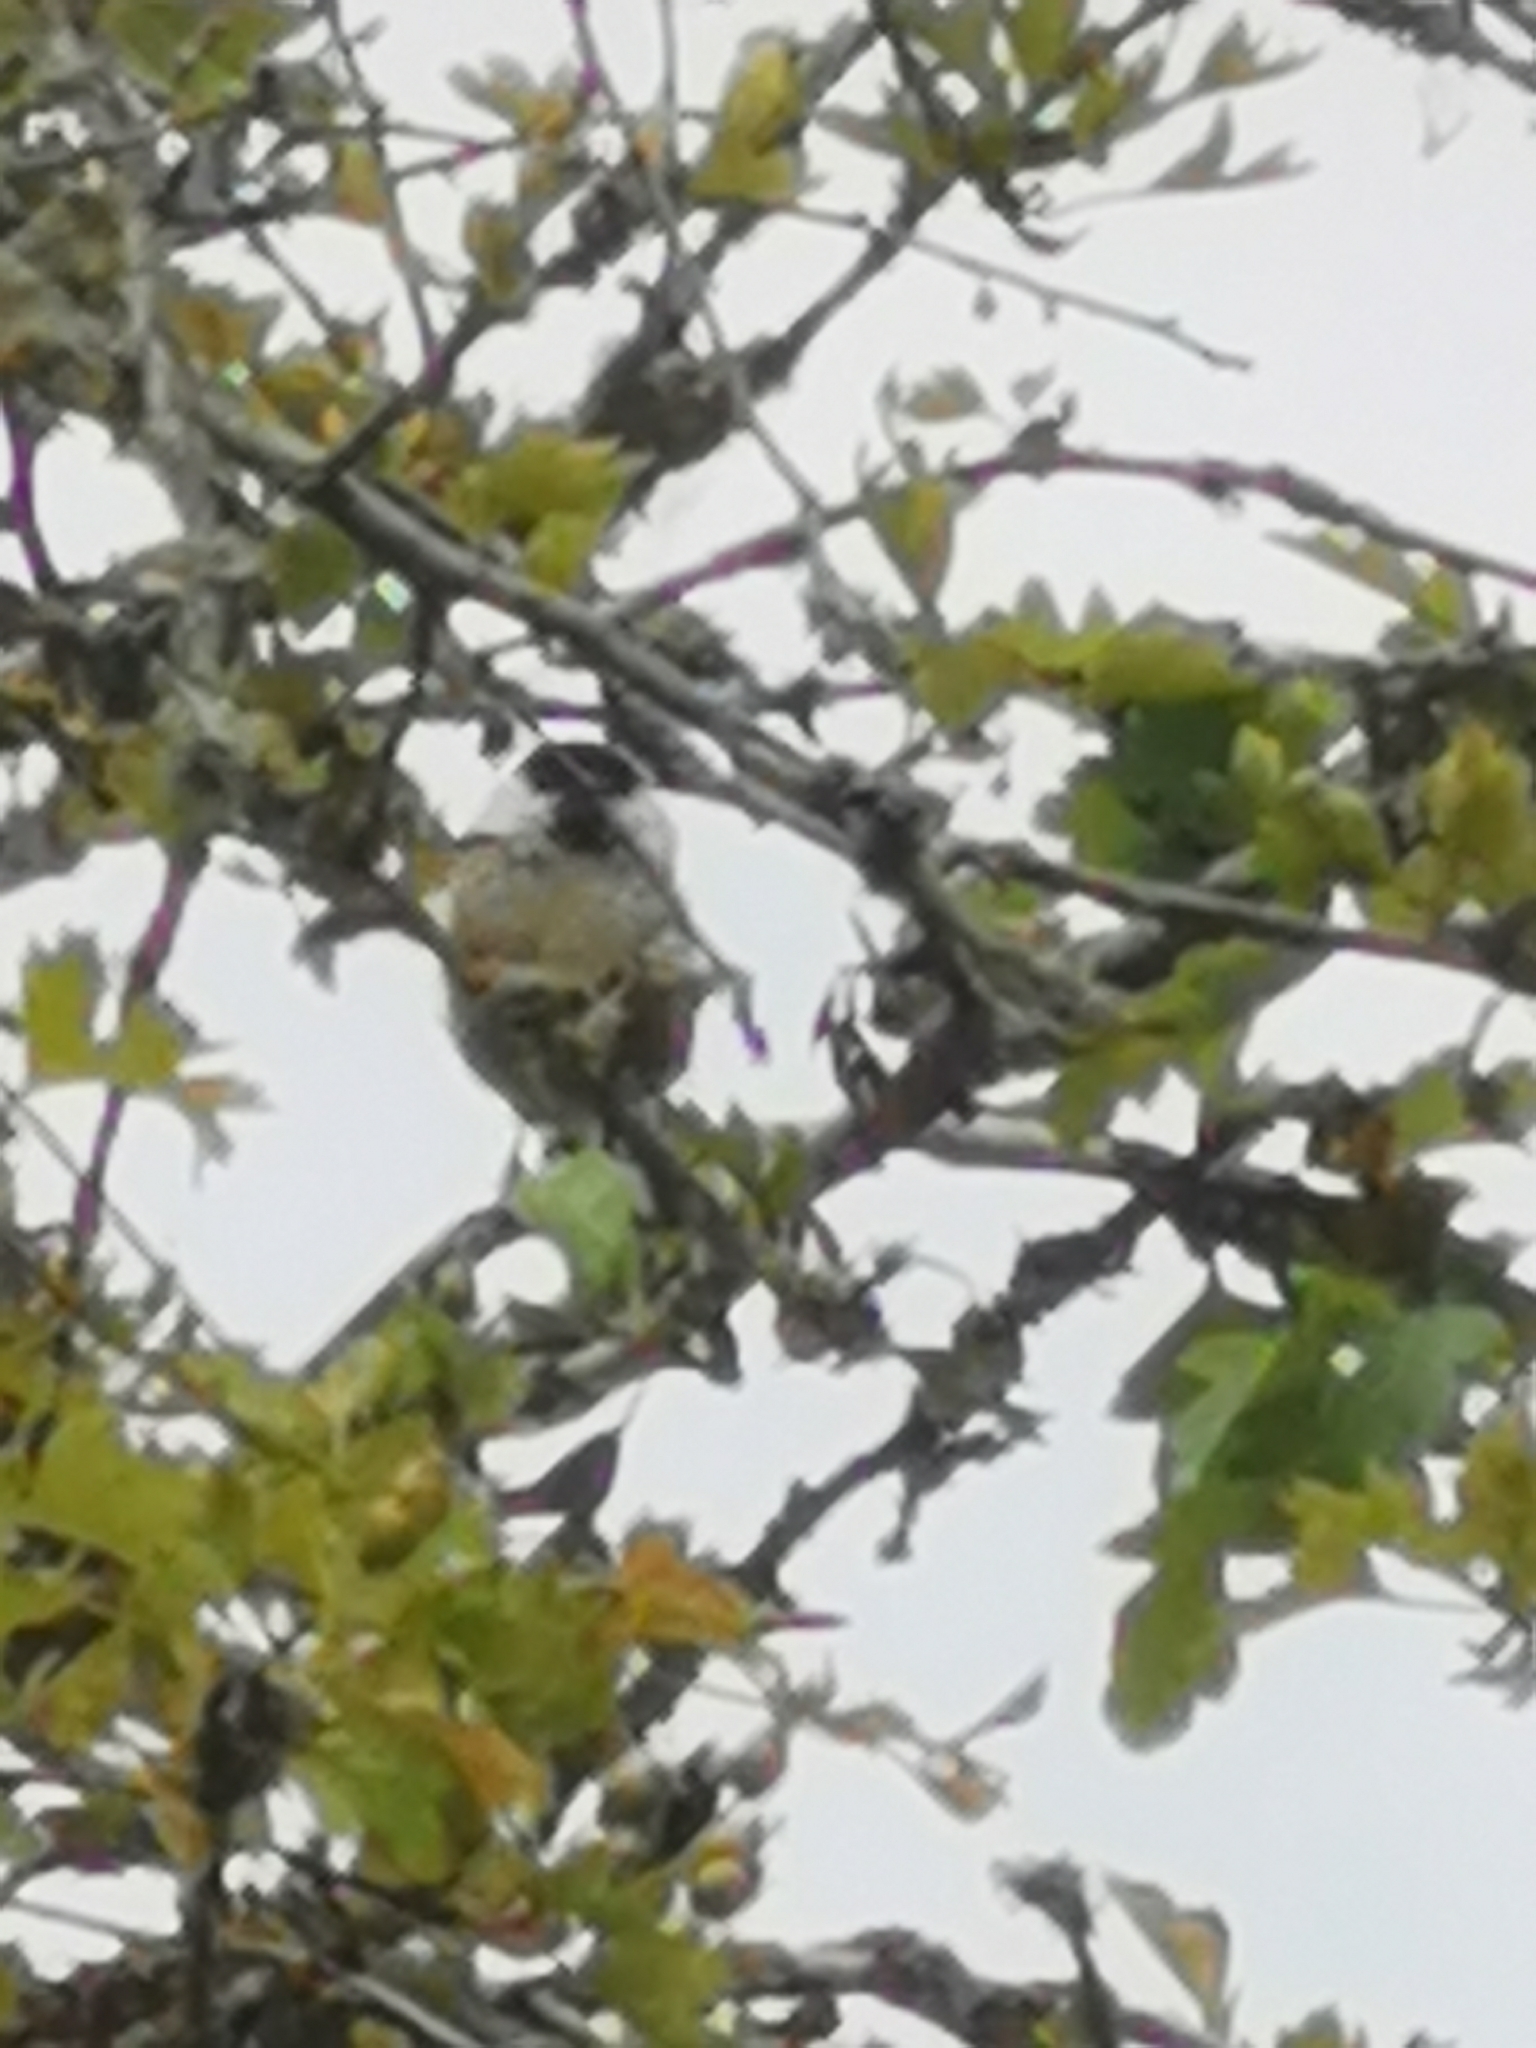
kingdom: Animalia
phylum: Chordata
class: Aves
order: Passeriformes
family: Paridae
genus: Poecile
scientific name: Poecile montanus
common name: Willow tit
